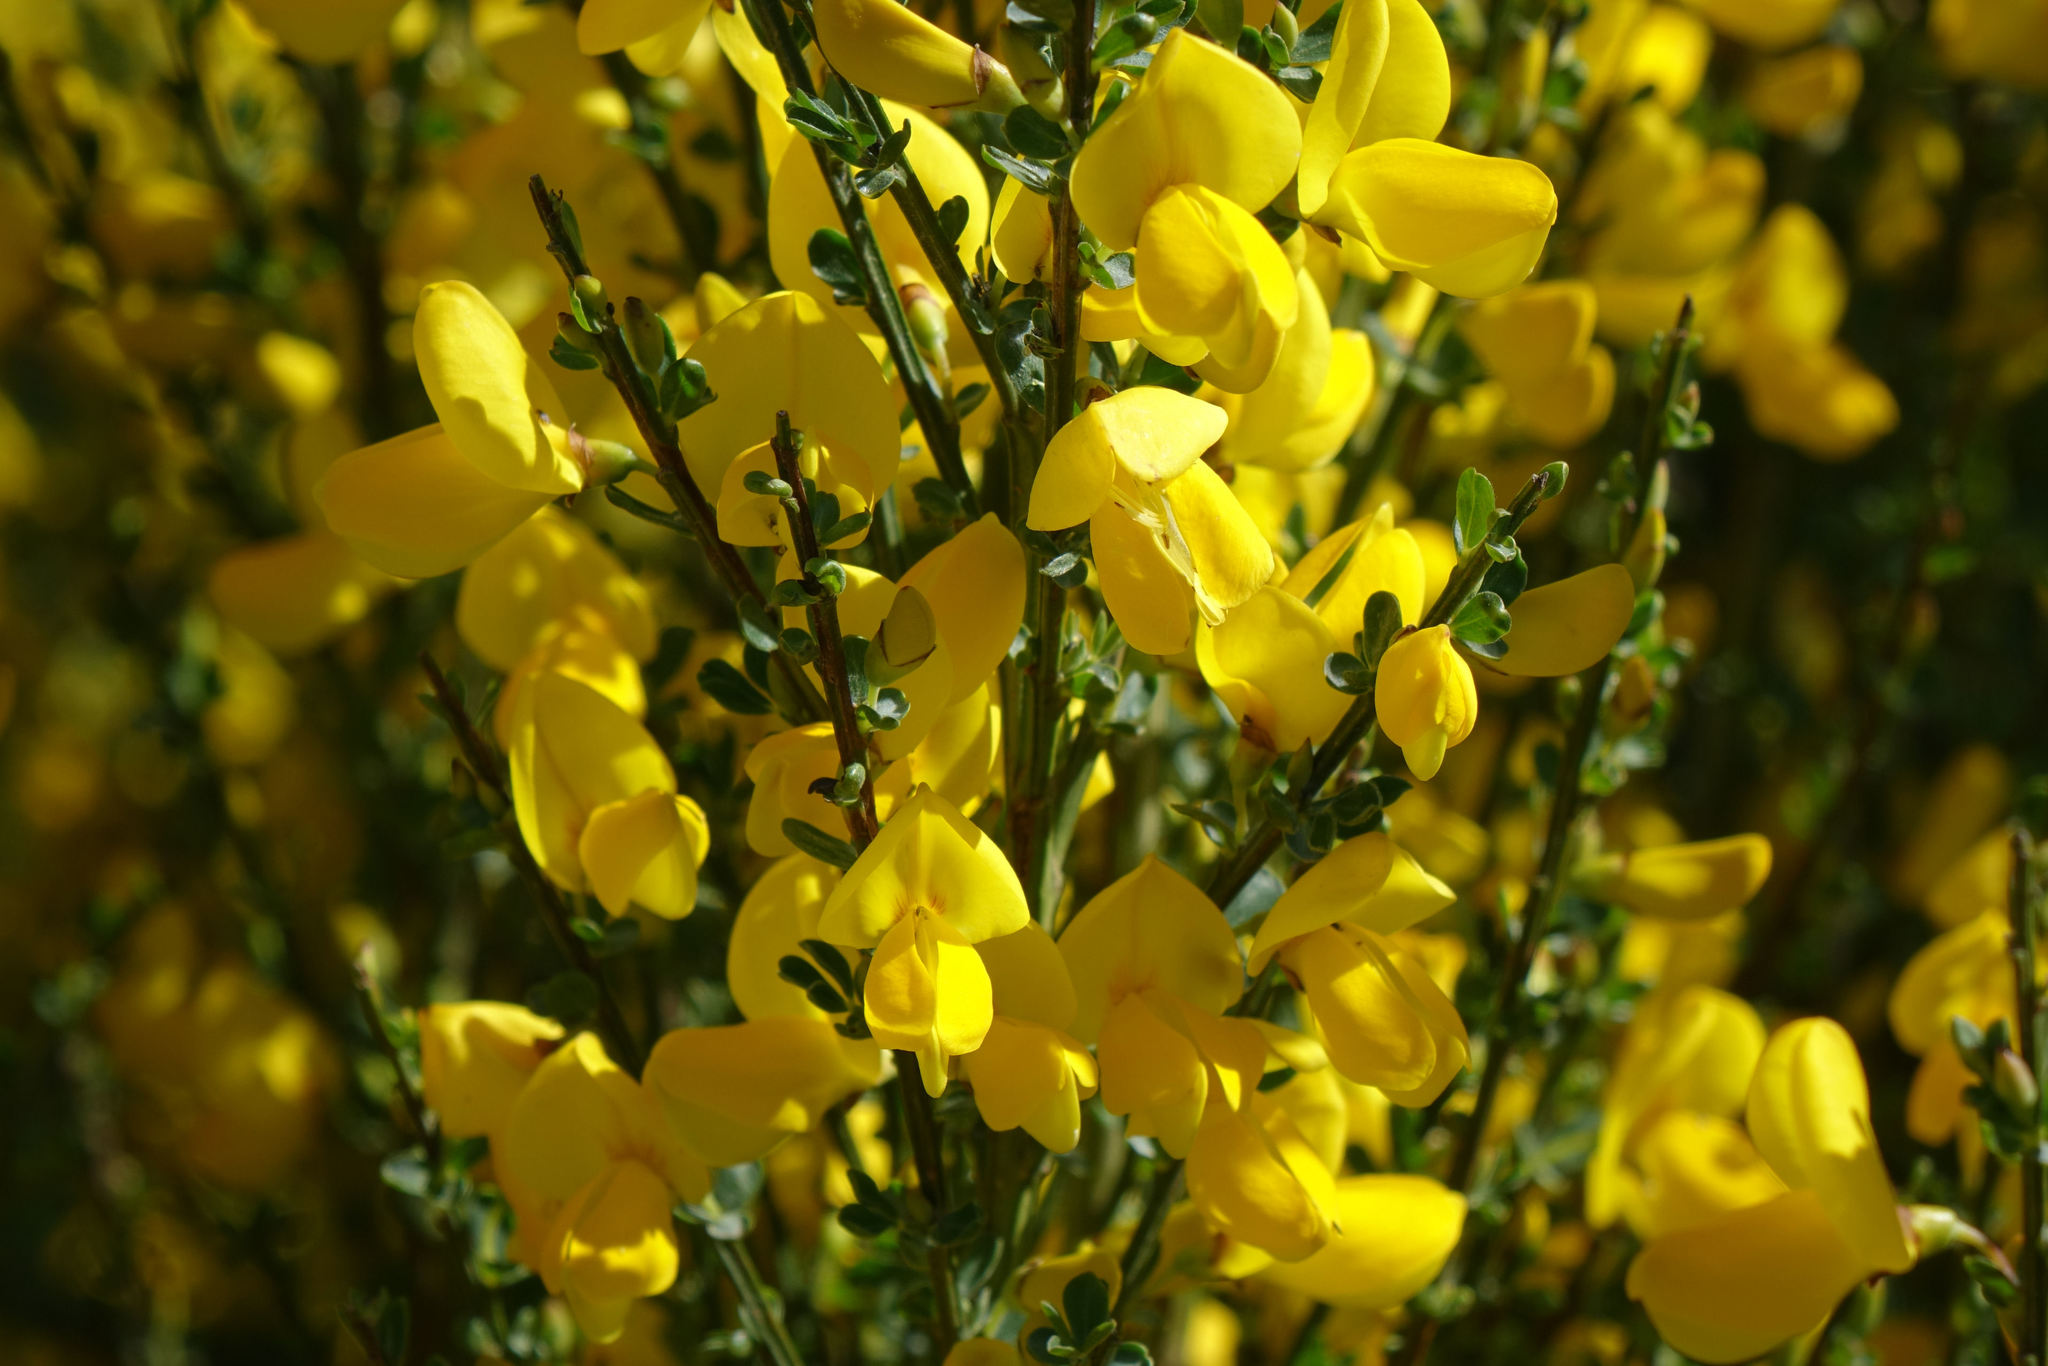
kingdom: Plantae
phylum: Tracheophyta
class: Magnoliopsida
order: Fabales
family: Fabaceae
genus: Cytisus
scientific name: Cytisus scoparius
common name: Scotch broom
